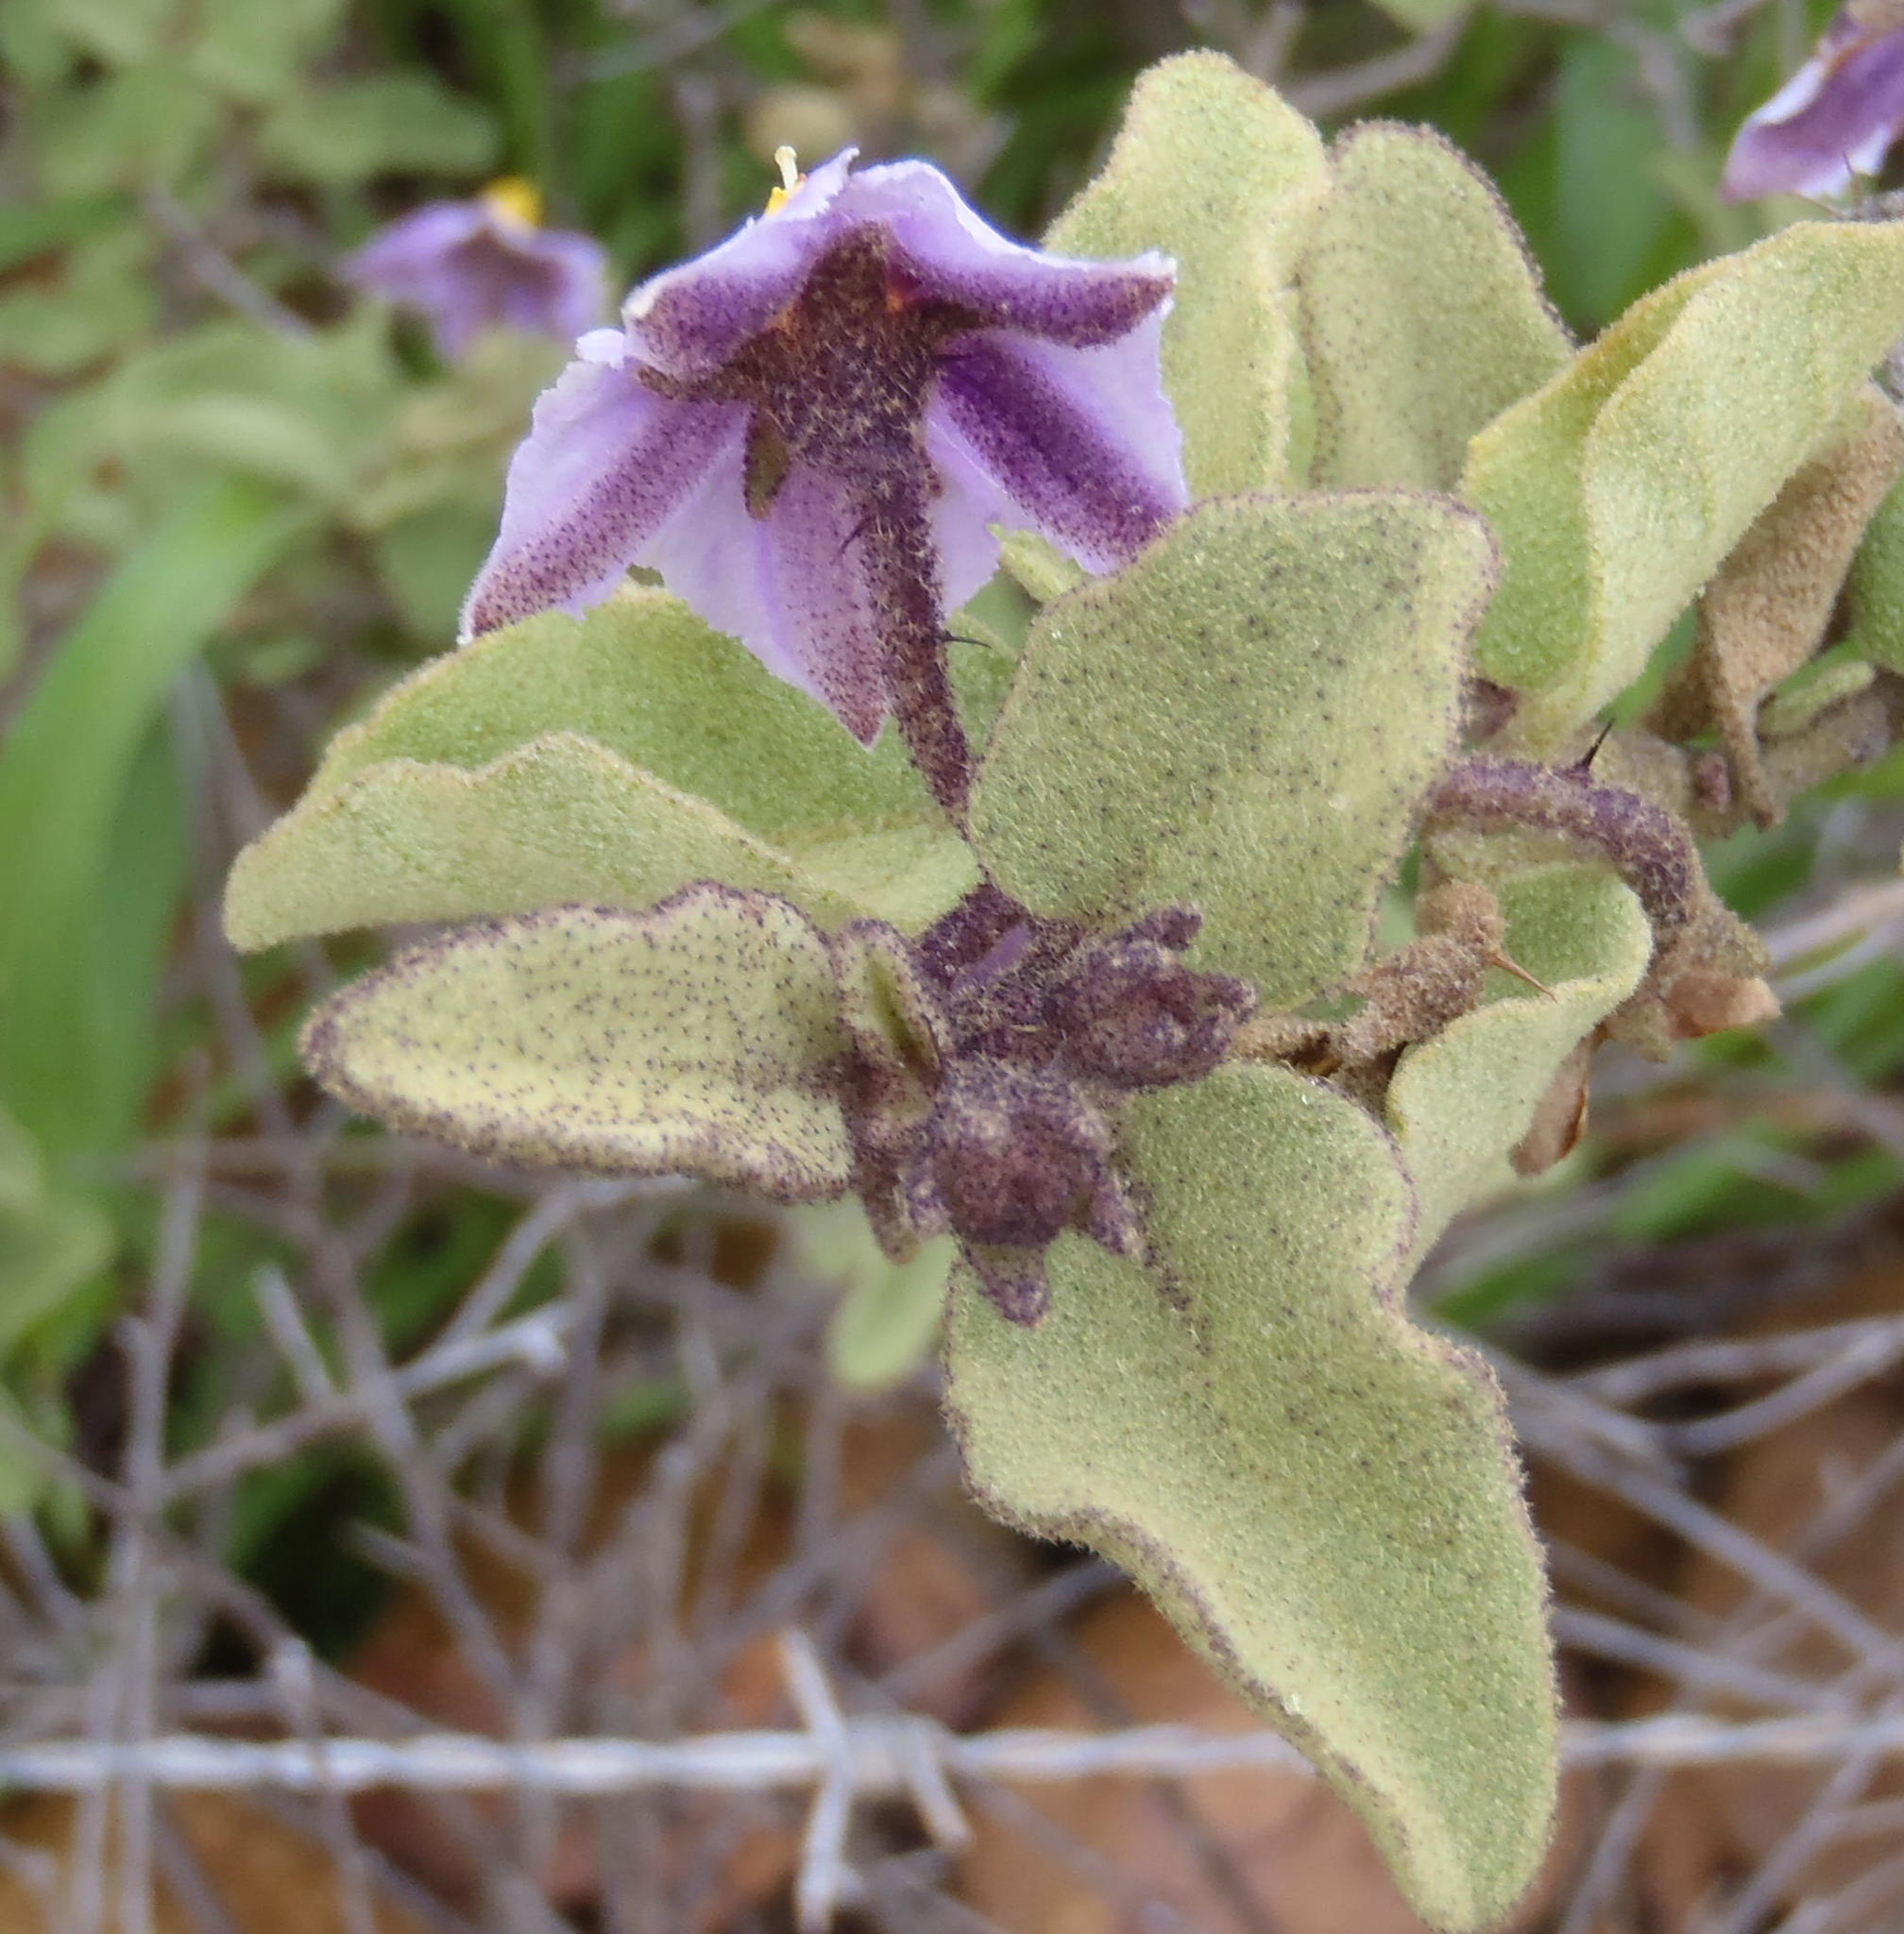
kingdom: Plantae
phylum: Tracheophyta
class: Magnoliopsida
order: Solanales
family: Solanaceae
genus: Solanum
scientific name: Solanum tomentosum
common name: Wild aubergine
